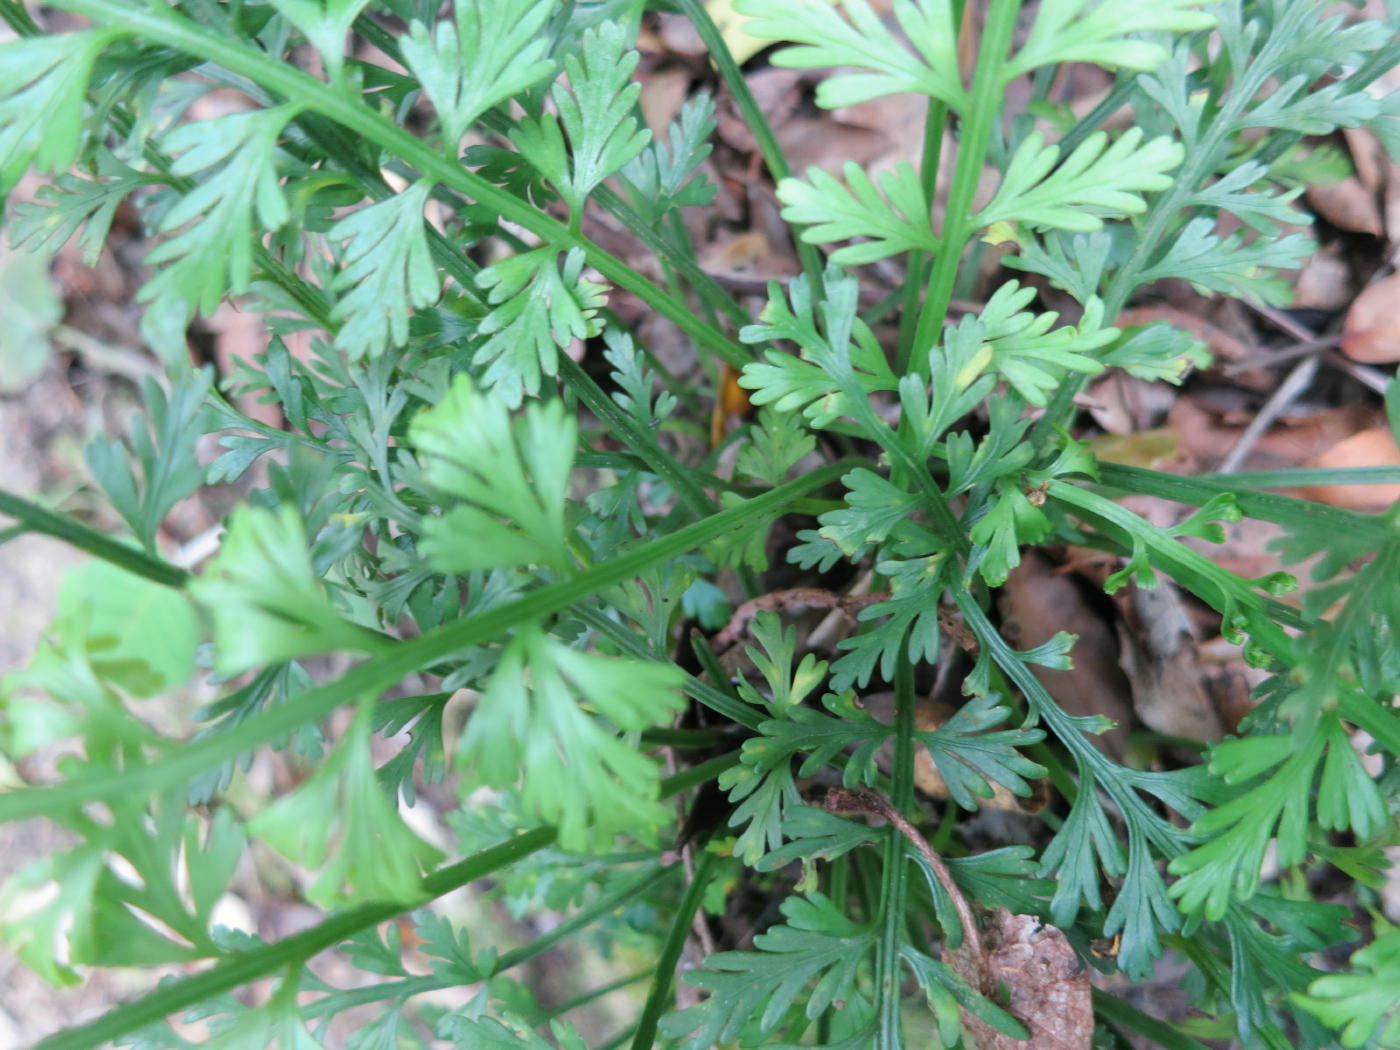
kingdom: Plantae
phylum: Tracheophyta
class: Polypodiopsida
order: Polypodiales
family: Aspleniaceae
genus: Asplenium
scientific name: Asplenium rutifolium
